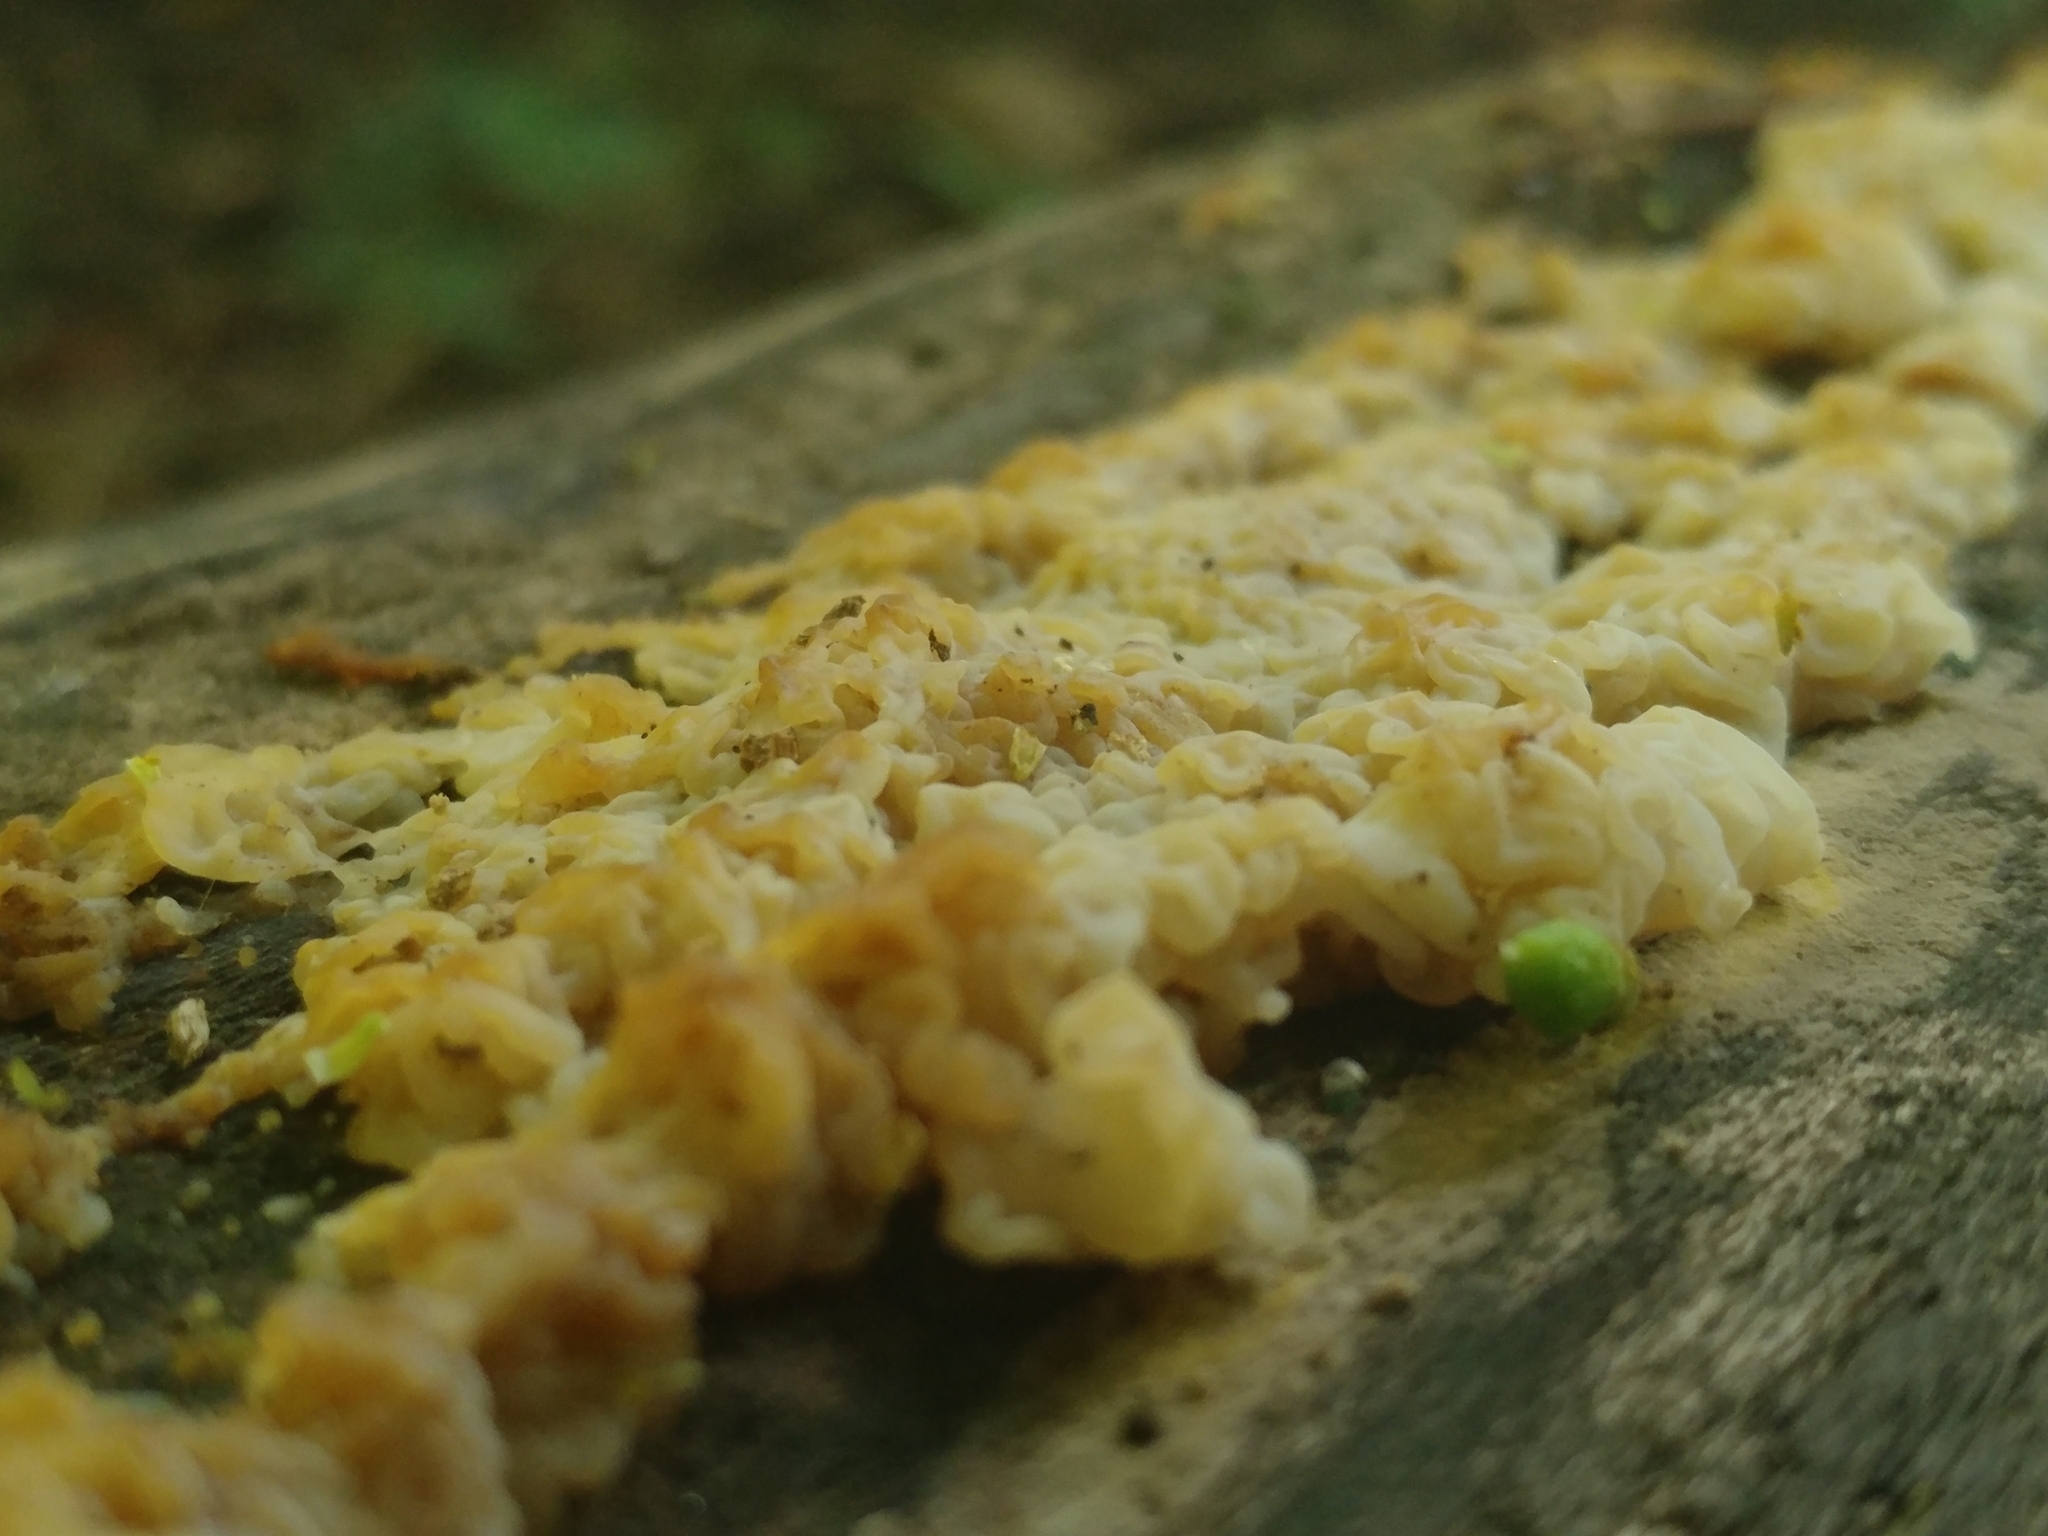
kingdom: Fungi
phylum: Basidiomycota
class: Agaricomycetes
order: Auriculariales
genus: Ductifera
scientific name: Ductifera pululahuana
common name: White jelly fungus
